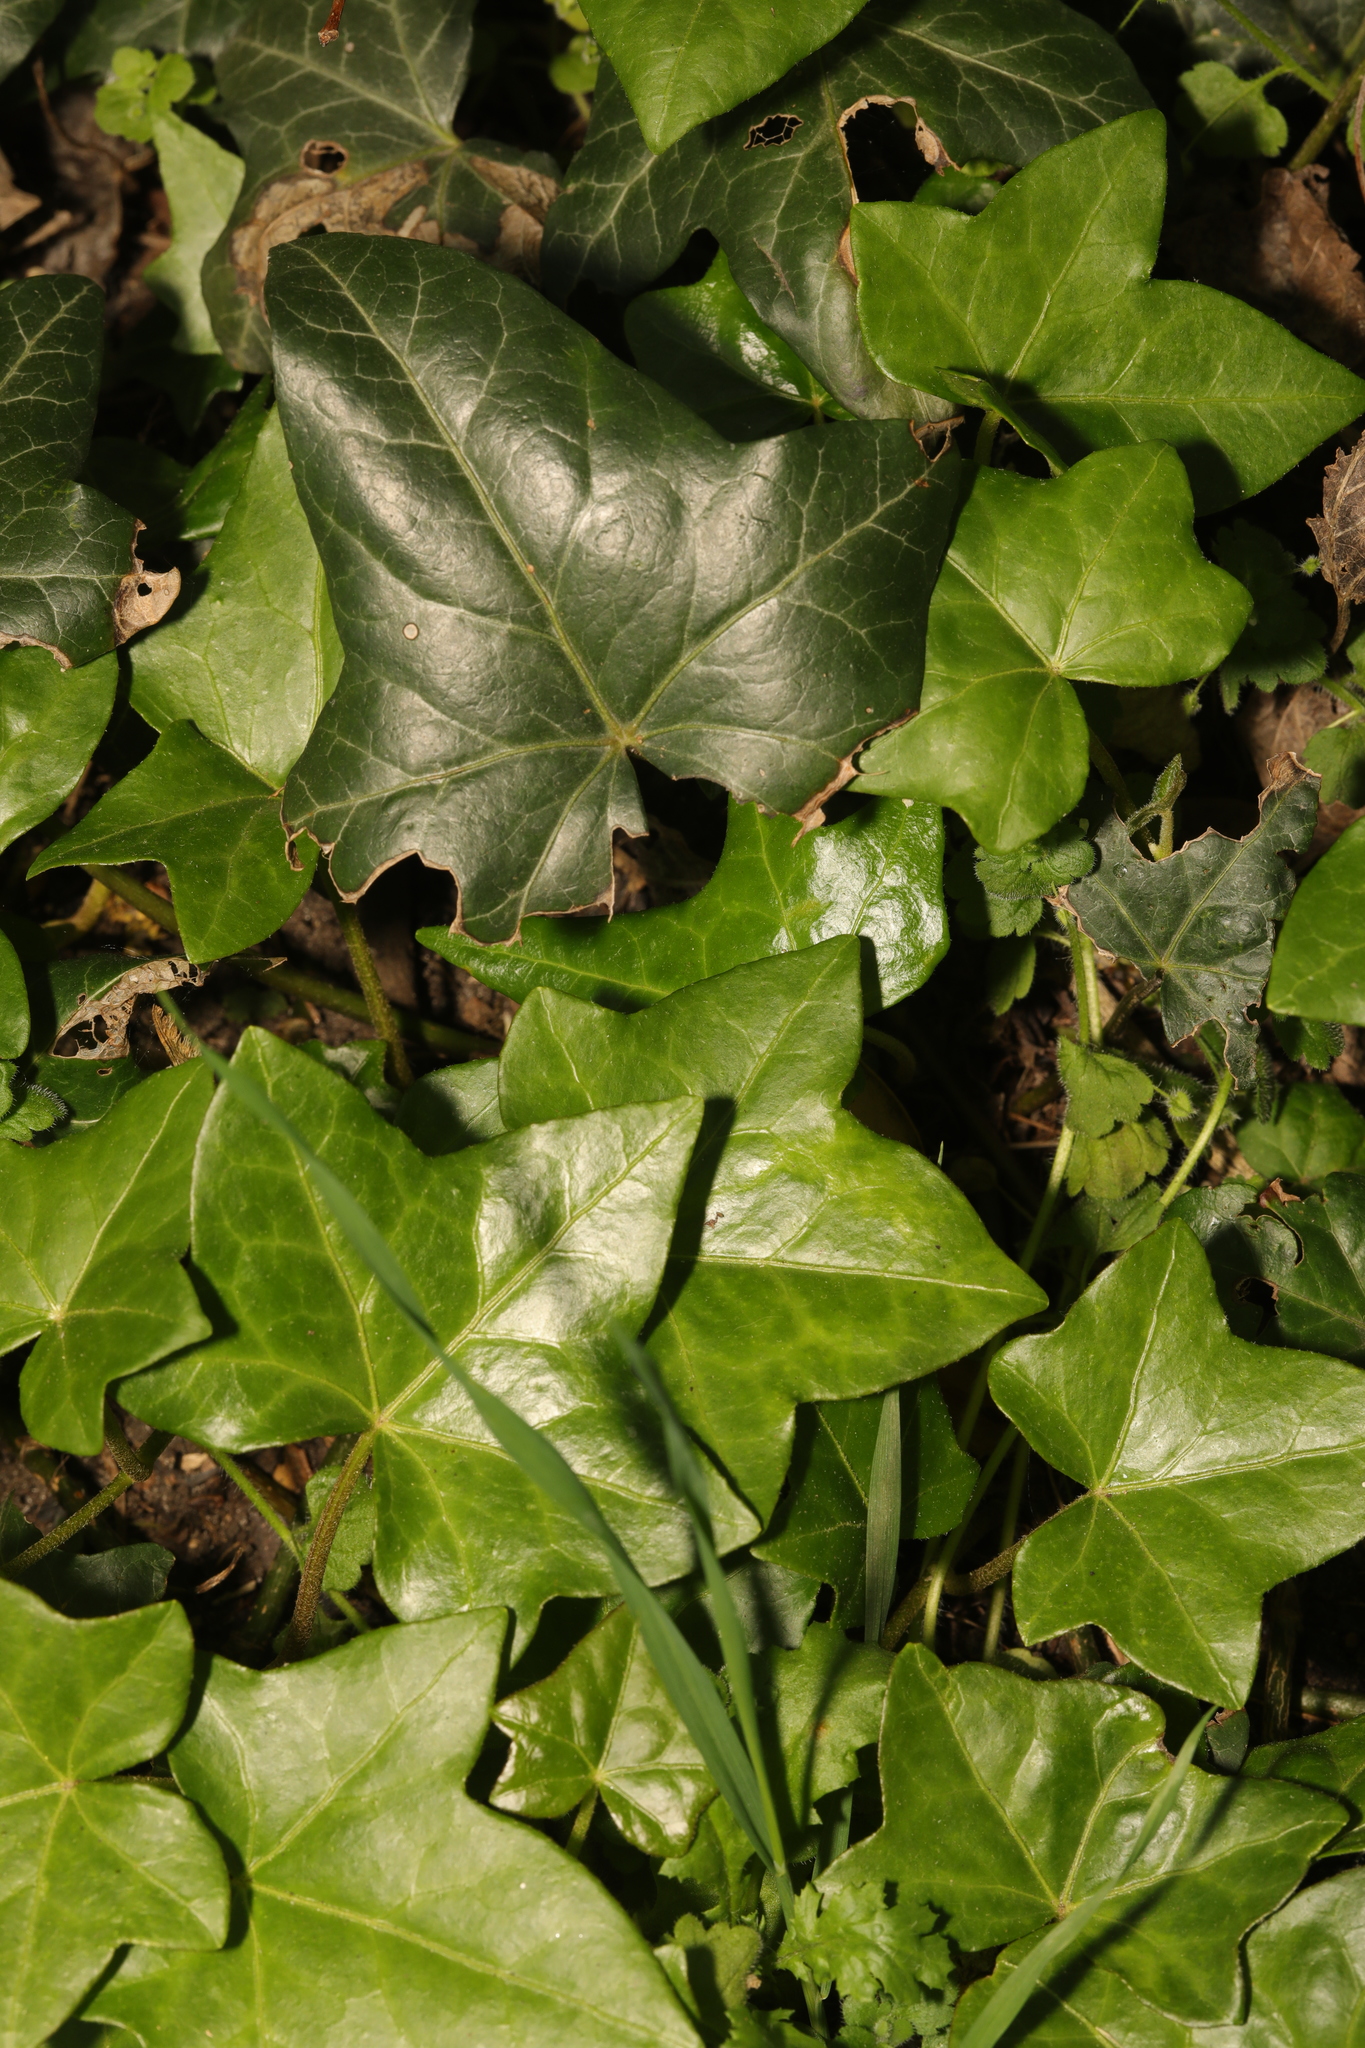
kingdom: Plantae
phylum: Tracheophyta
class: Magnoliopsida
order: Apiales
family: Araliaceae
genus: Hedera
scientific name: Hedera helix
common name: Ivy
